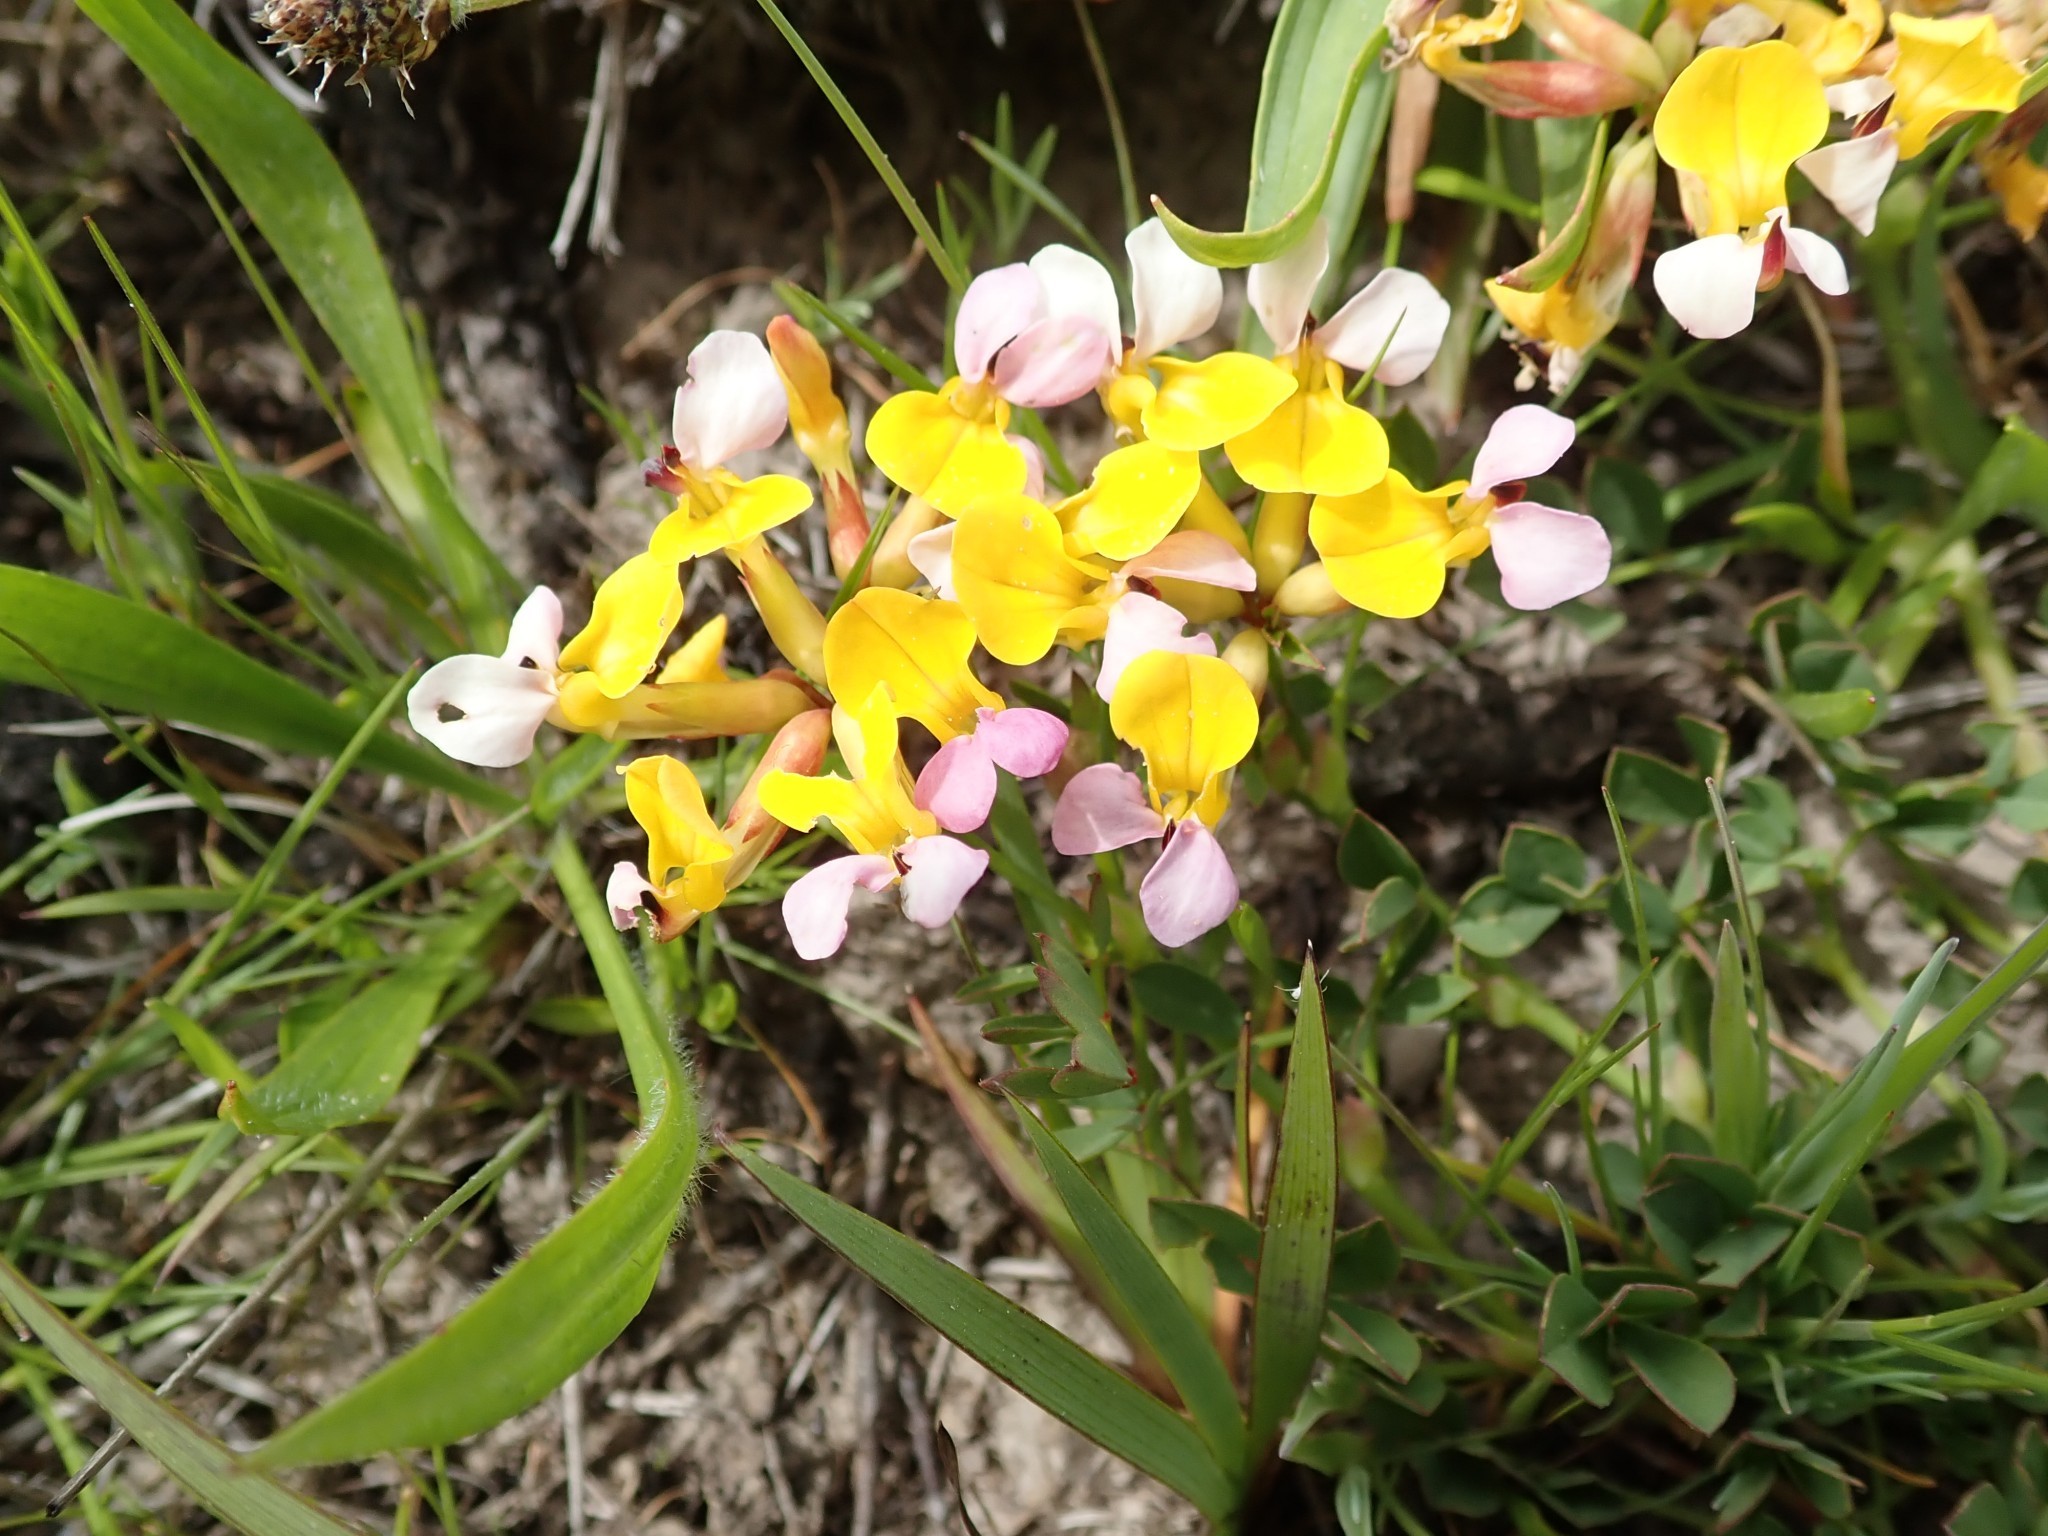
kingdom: Plantae
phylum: Tracheophyta
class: Magnoliopsida
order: Fabales
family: Fabaceae
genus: Hosackia
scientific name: Hosackia gracilis
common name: Seaside bird's-foot lotus
